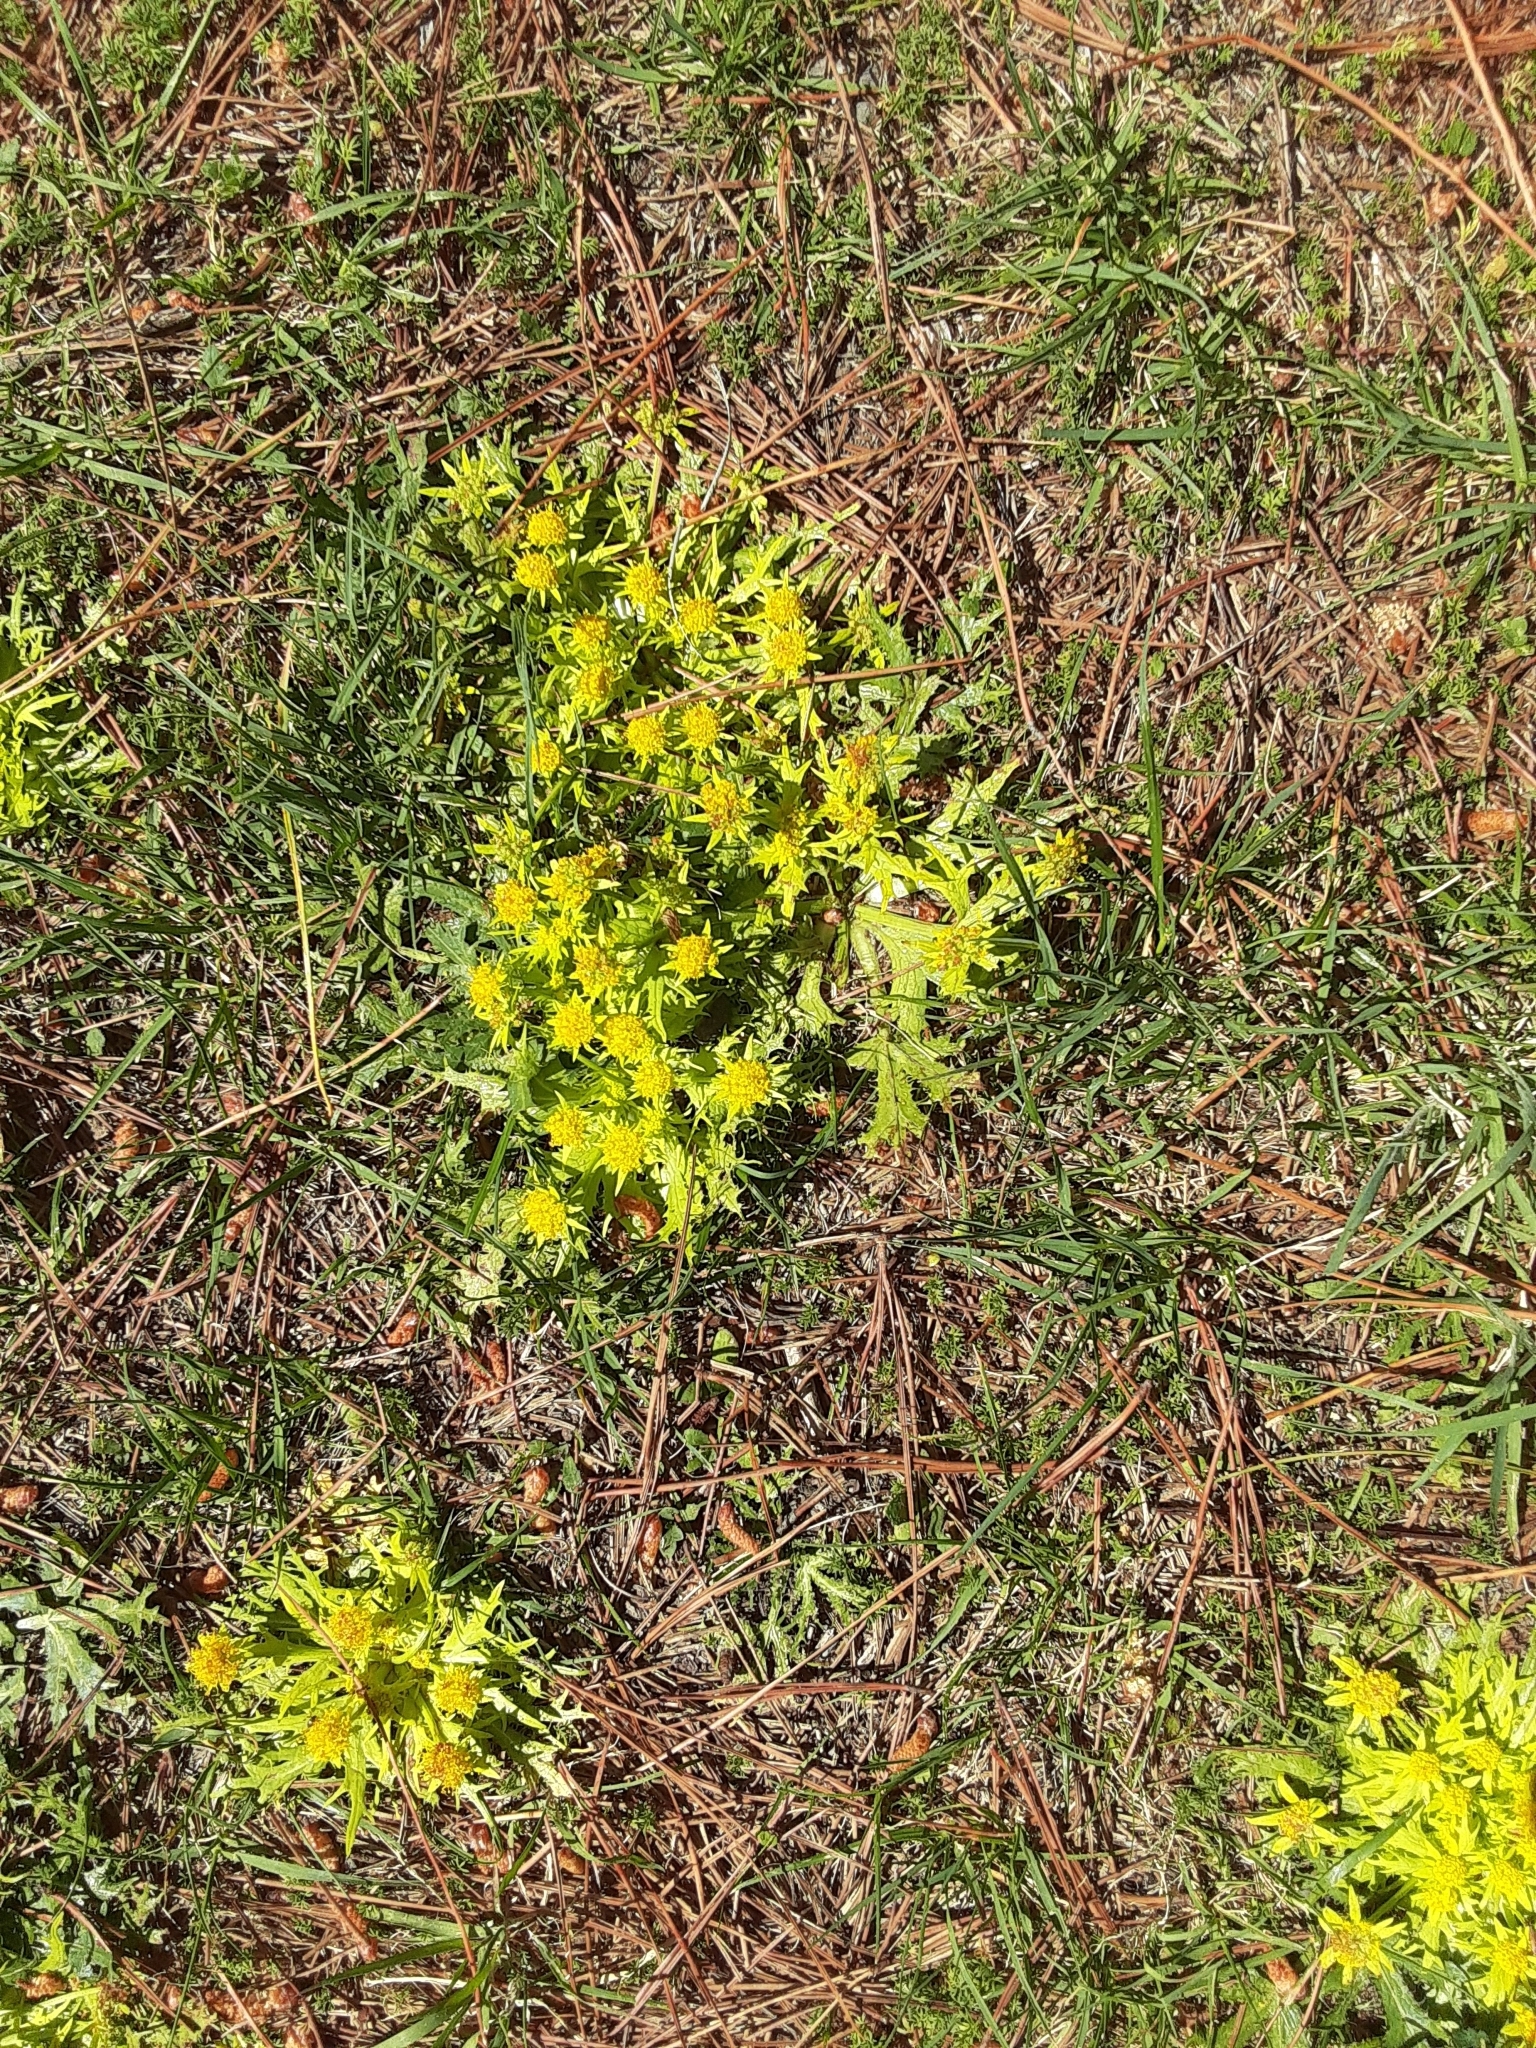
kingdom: Plantae
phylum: Tracheophyta
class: Magnoliopsida
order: Apiales
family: Apiaceae
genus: Sanicula
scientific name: Sanicula arctopoides
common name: Footsteps-of-spring
